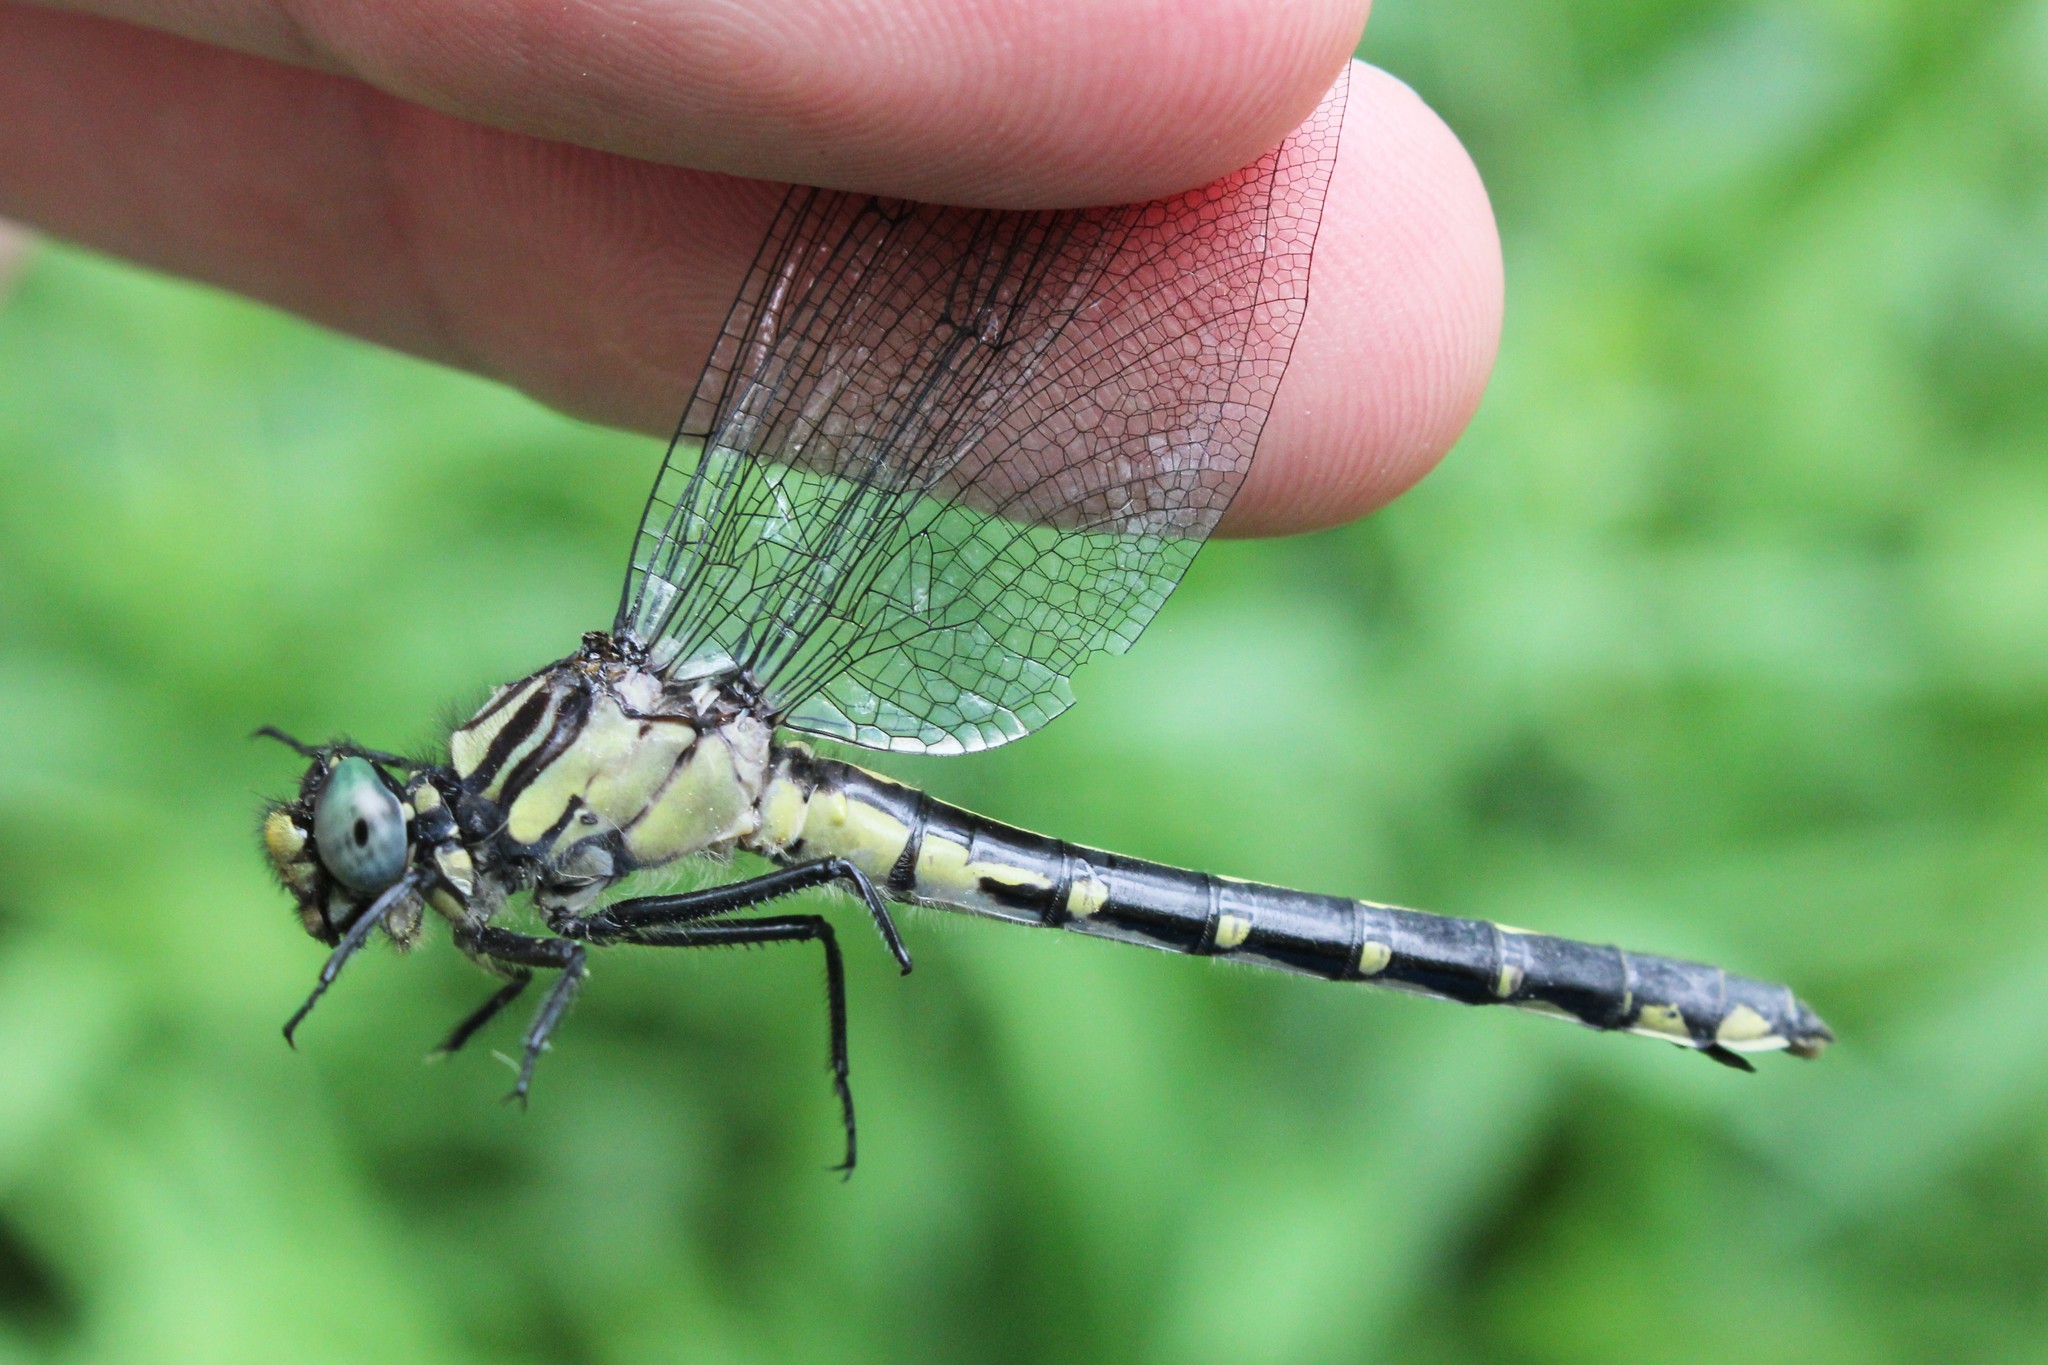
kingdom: Animalia
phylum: Arthropoda
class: Insecta
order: Odonata
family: Gomphidae
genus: Hylogomphus
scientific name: Hylogomphus viridifrons
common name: Green-faced clubtail
